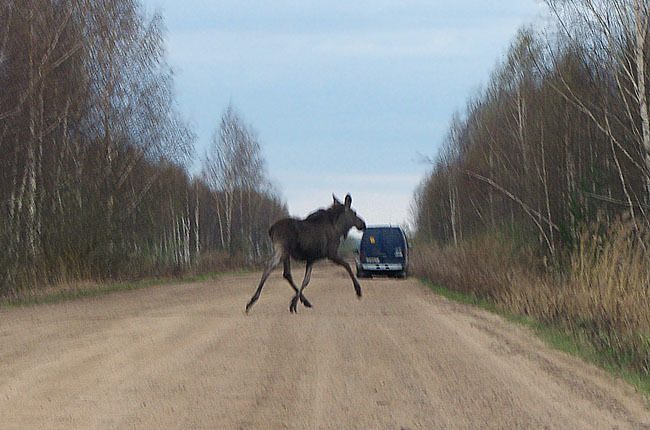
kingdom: Animalia
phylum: Chordata
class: Mammalia
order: Artiodactyla
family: Cervidae
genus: Alces
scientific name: Alces alces
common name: Moose
